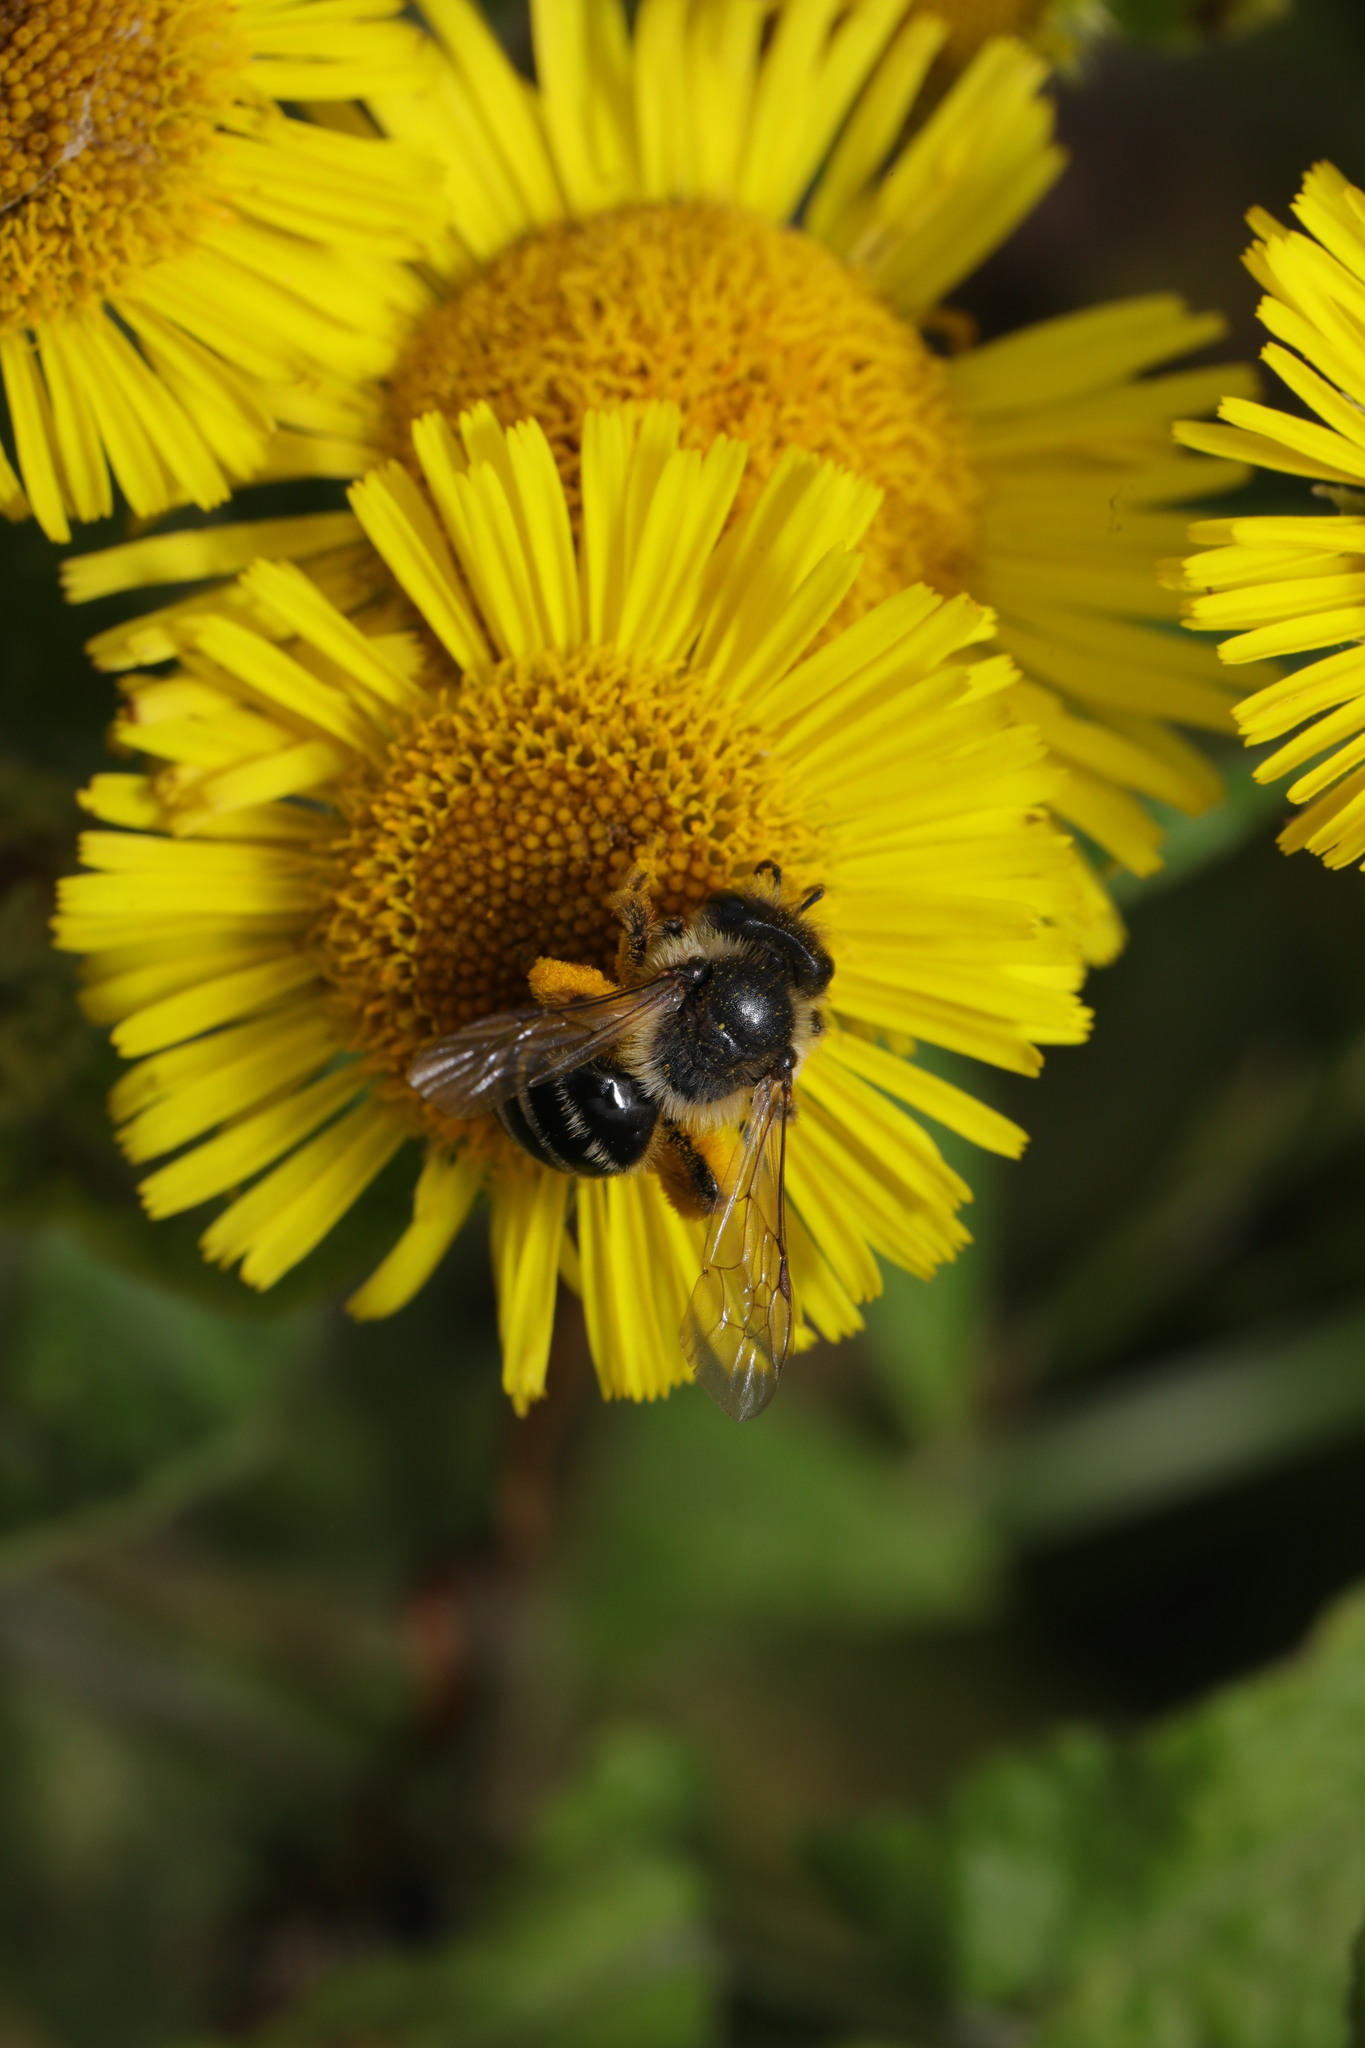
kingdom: Animalia
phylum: Arthropoda
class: Insecta
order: Hymenoptera
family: Andrenidae
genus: Andrena
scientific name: Andrena flavipes
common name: Yellow-legged mining bee
